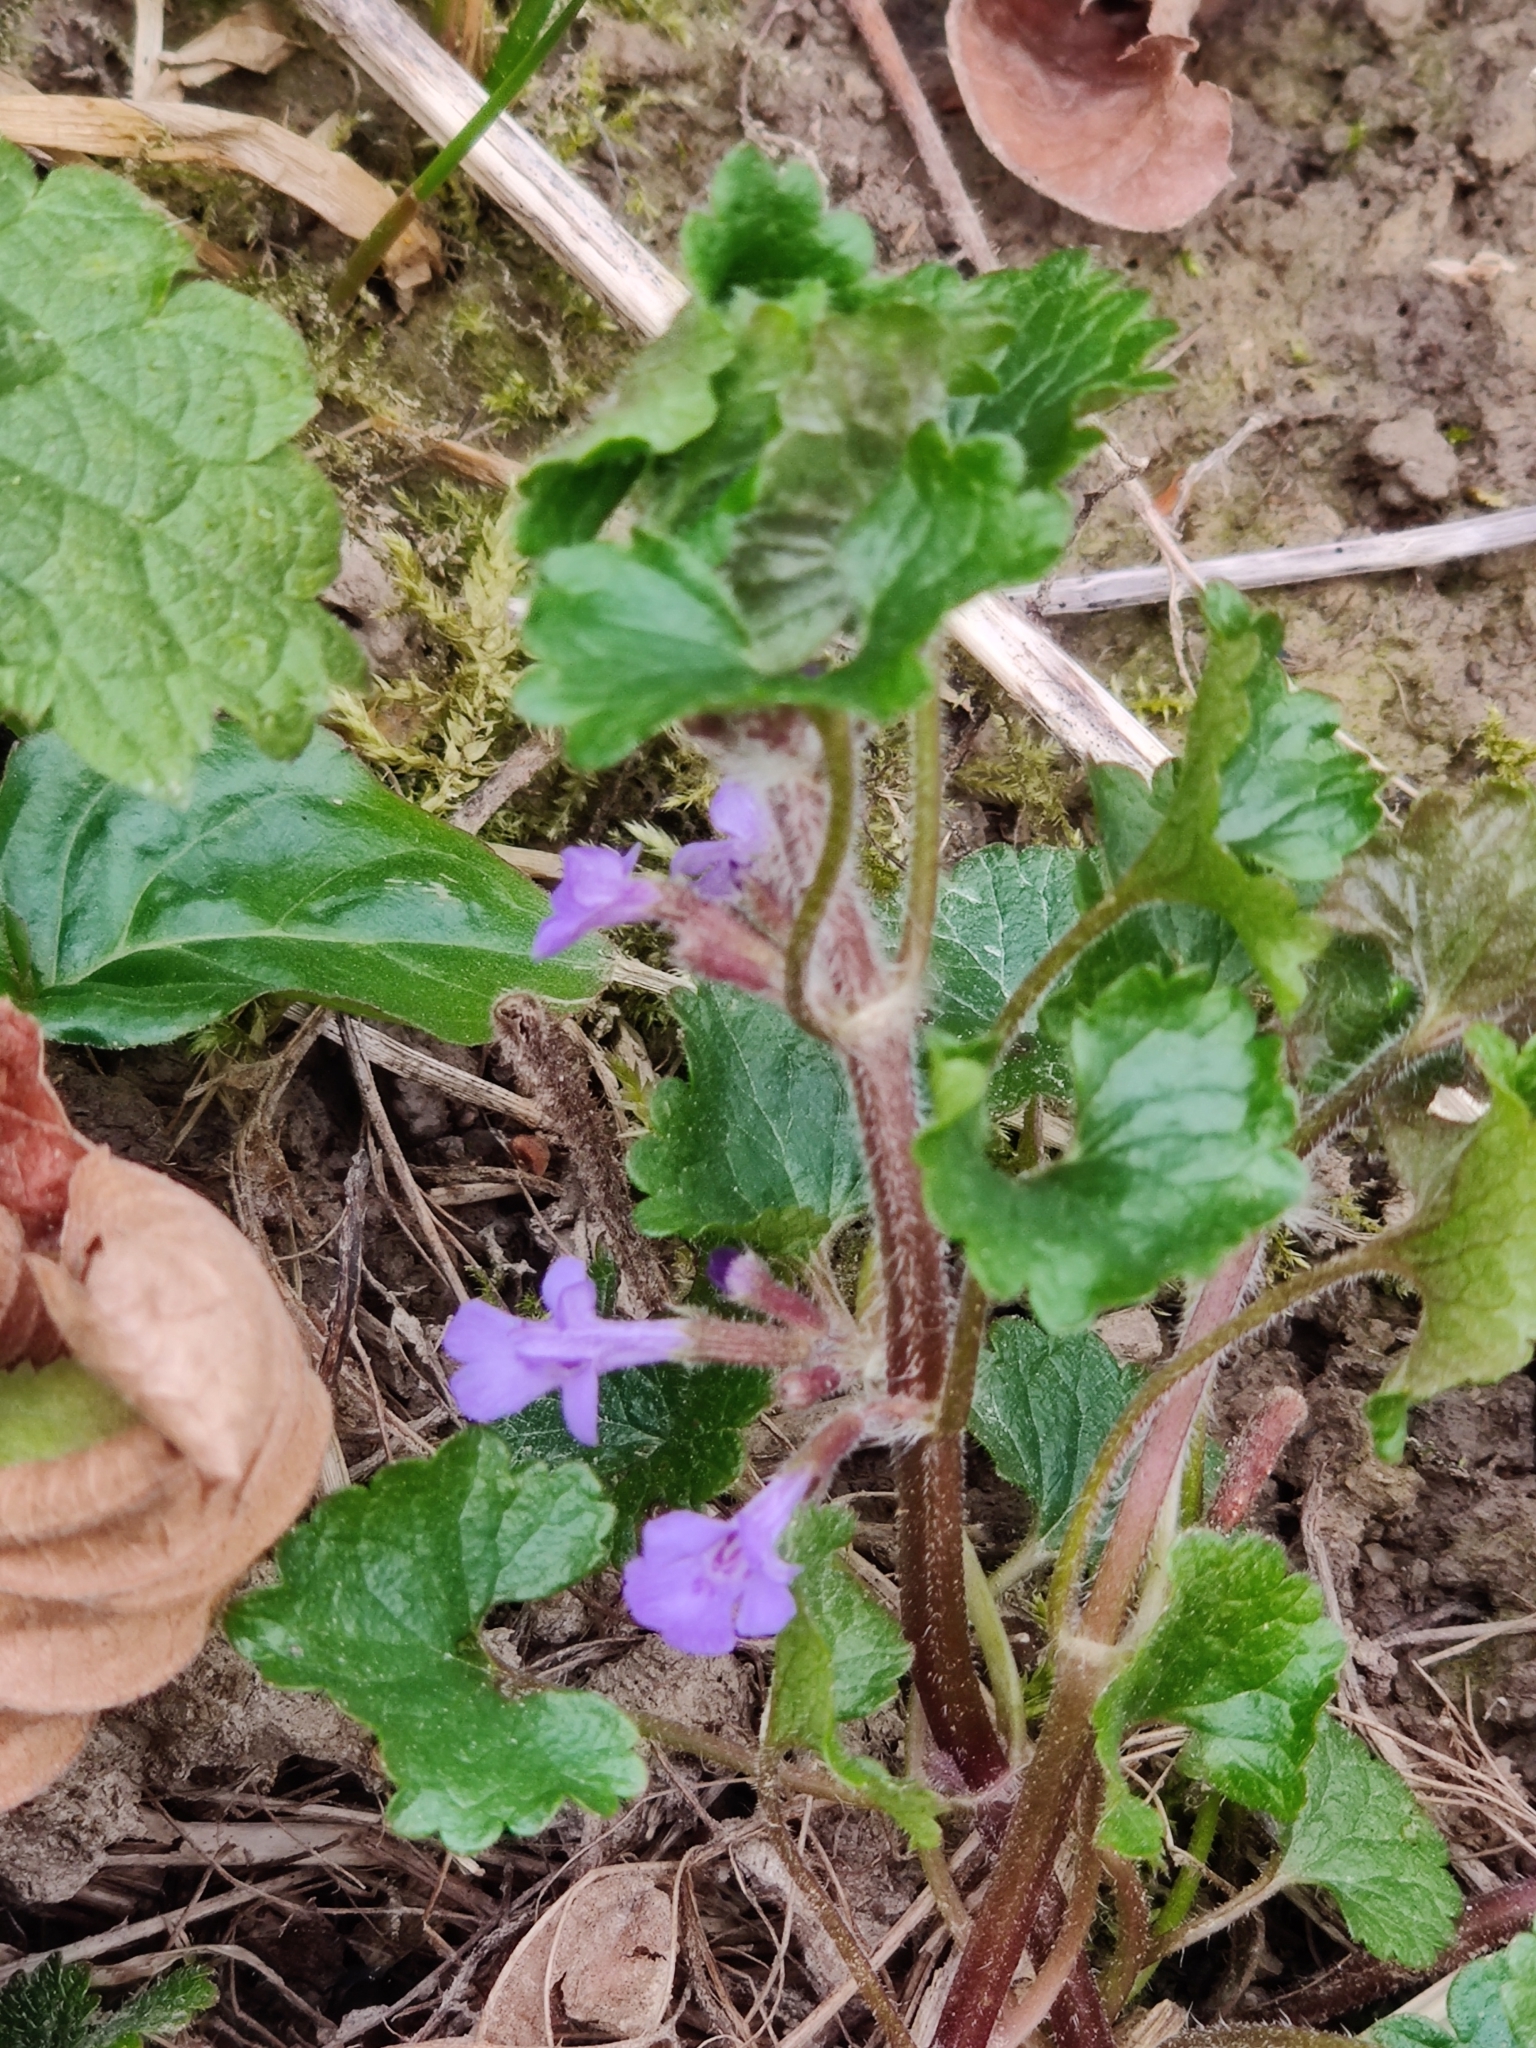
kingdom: Plantae
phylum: Tracheophyta
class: Magnoliopsida
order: Lamiales
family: Lamiaceae
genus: Glechoma
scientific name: Glechoma hederacea
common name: Ground ivy
